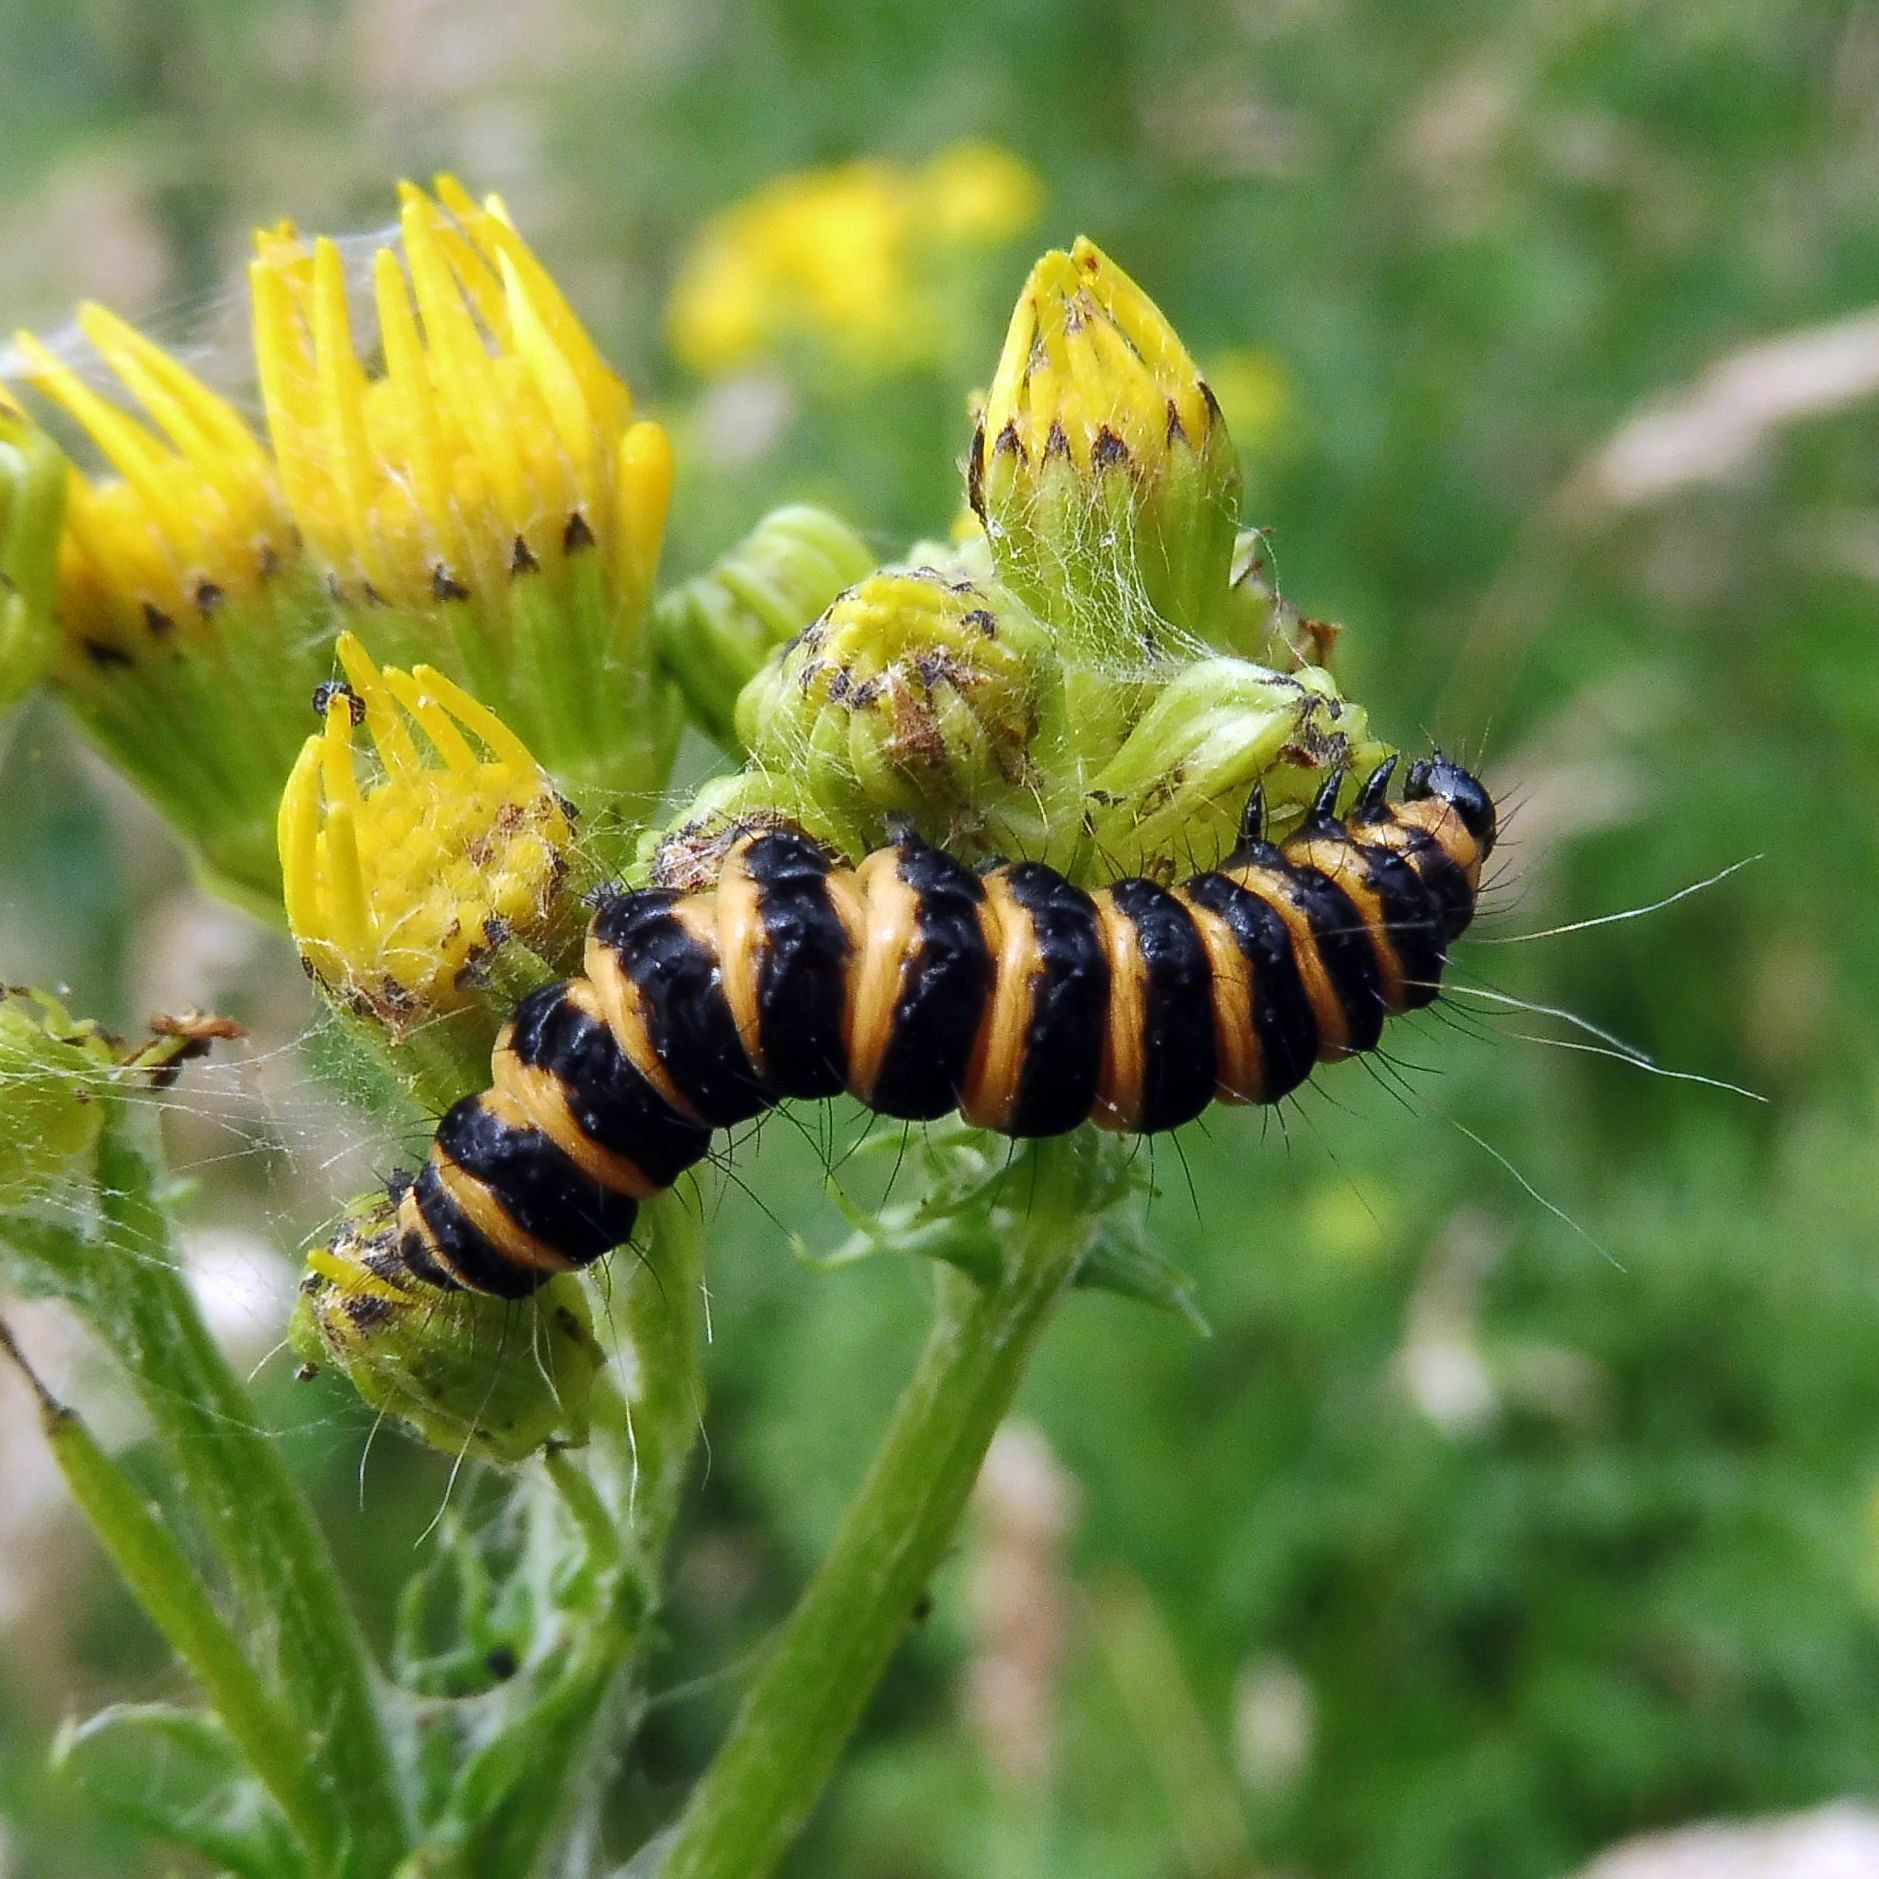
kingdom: Animalia
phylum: Arthropoda
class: Insecta
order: Lepidoptera
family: Erebidae
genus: Tyria
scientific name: Tyria jacobaeae
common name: Cinnabar
